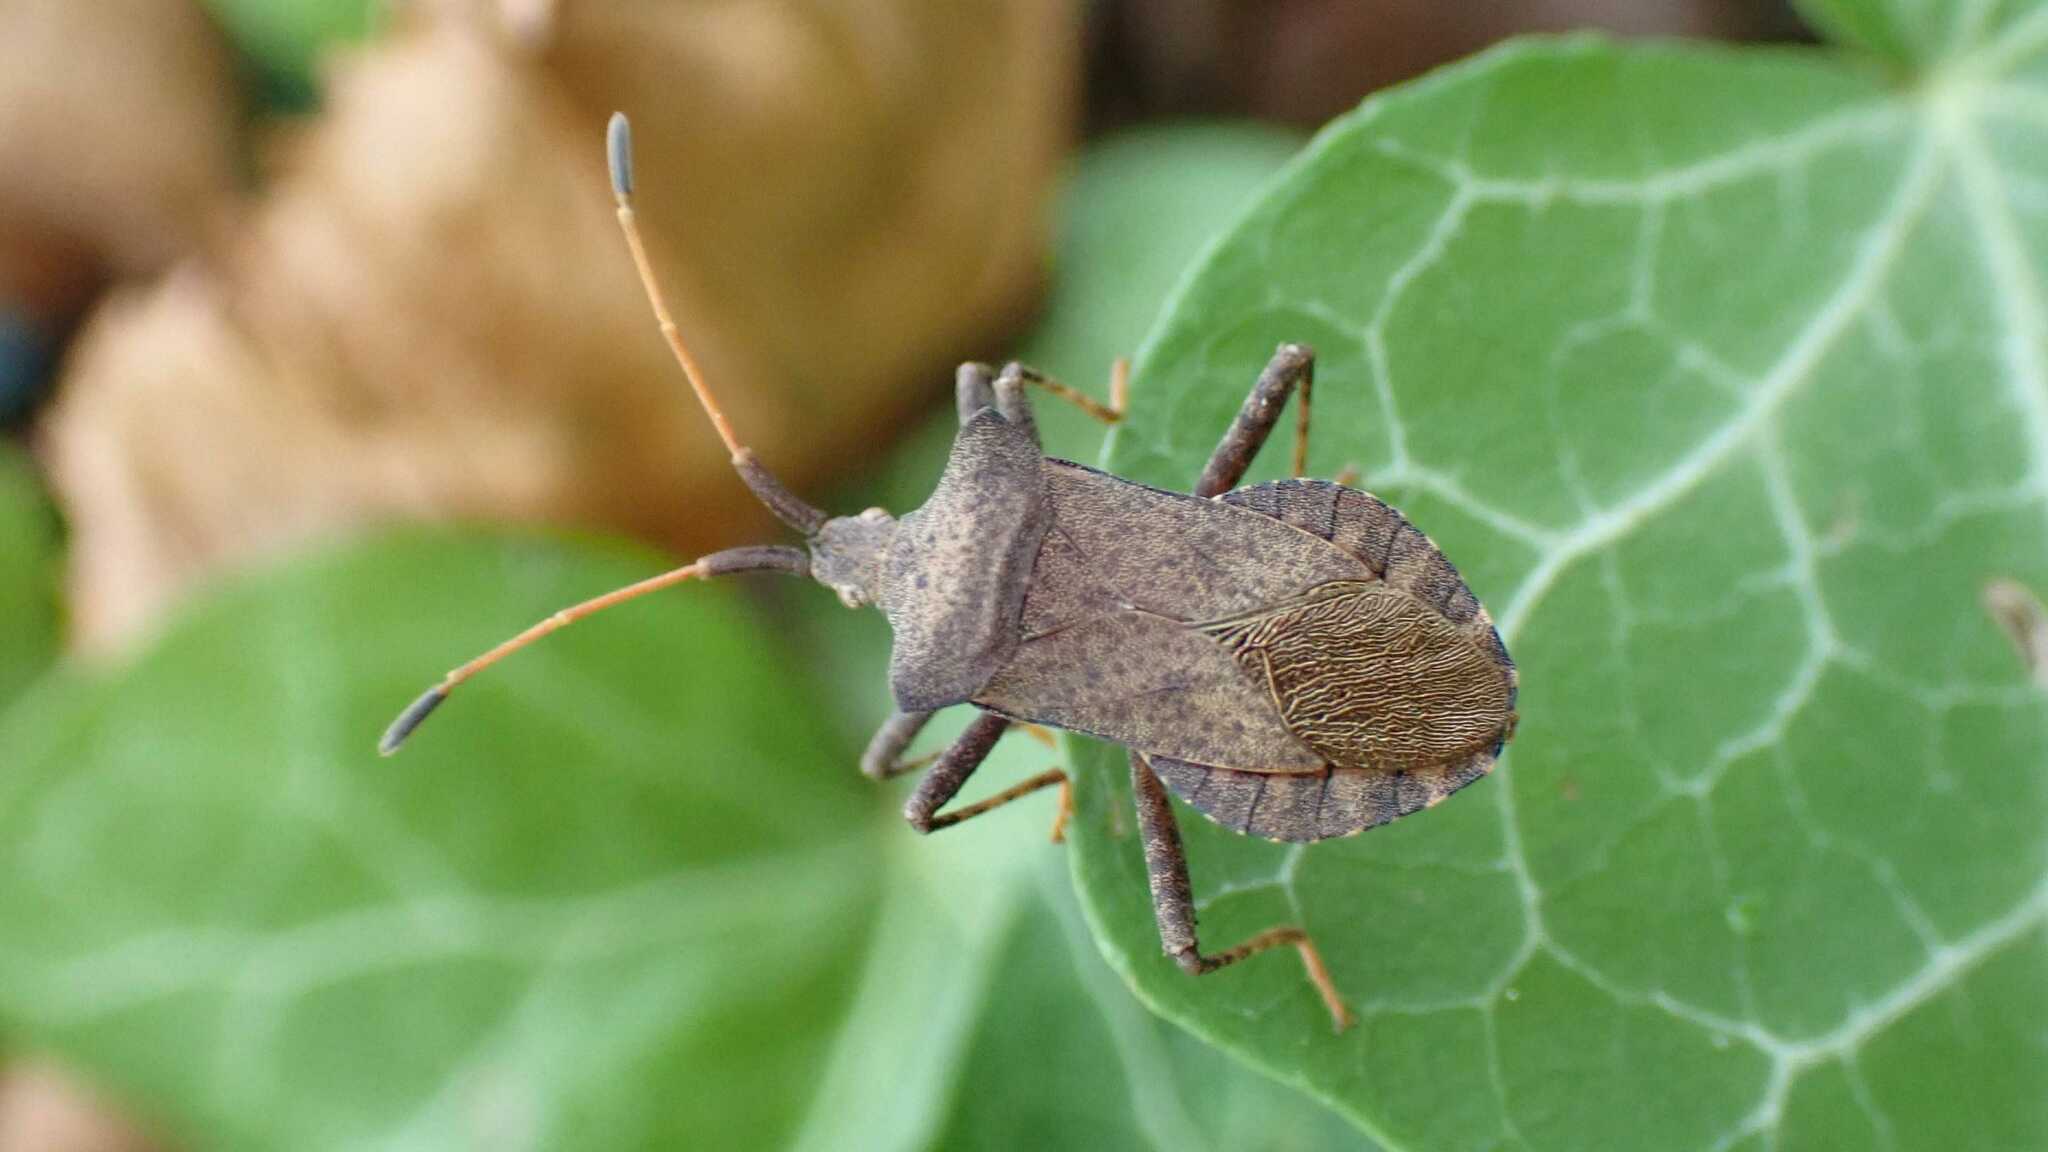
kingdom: Animalia
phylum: Arthropoda
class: Insecta
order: Hemiptera
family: Coreidae
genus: Coreus
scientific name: Coreus marginatus
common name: Dock bug
